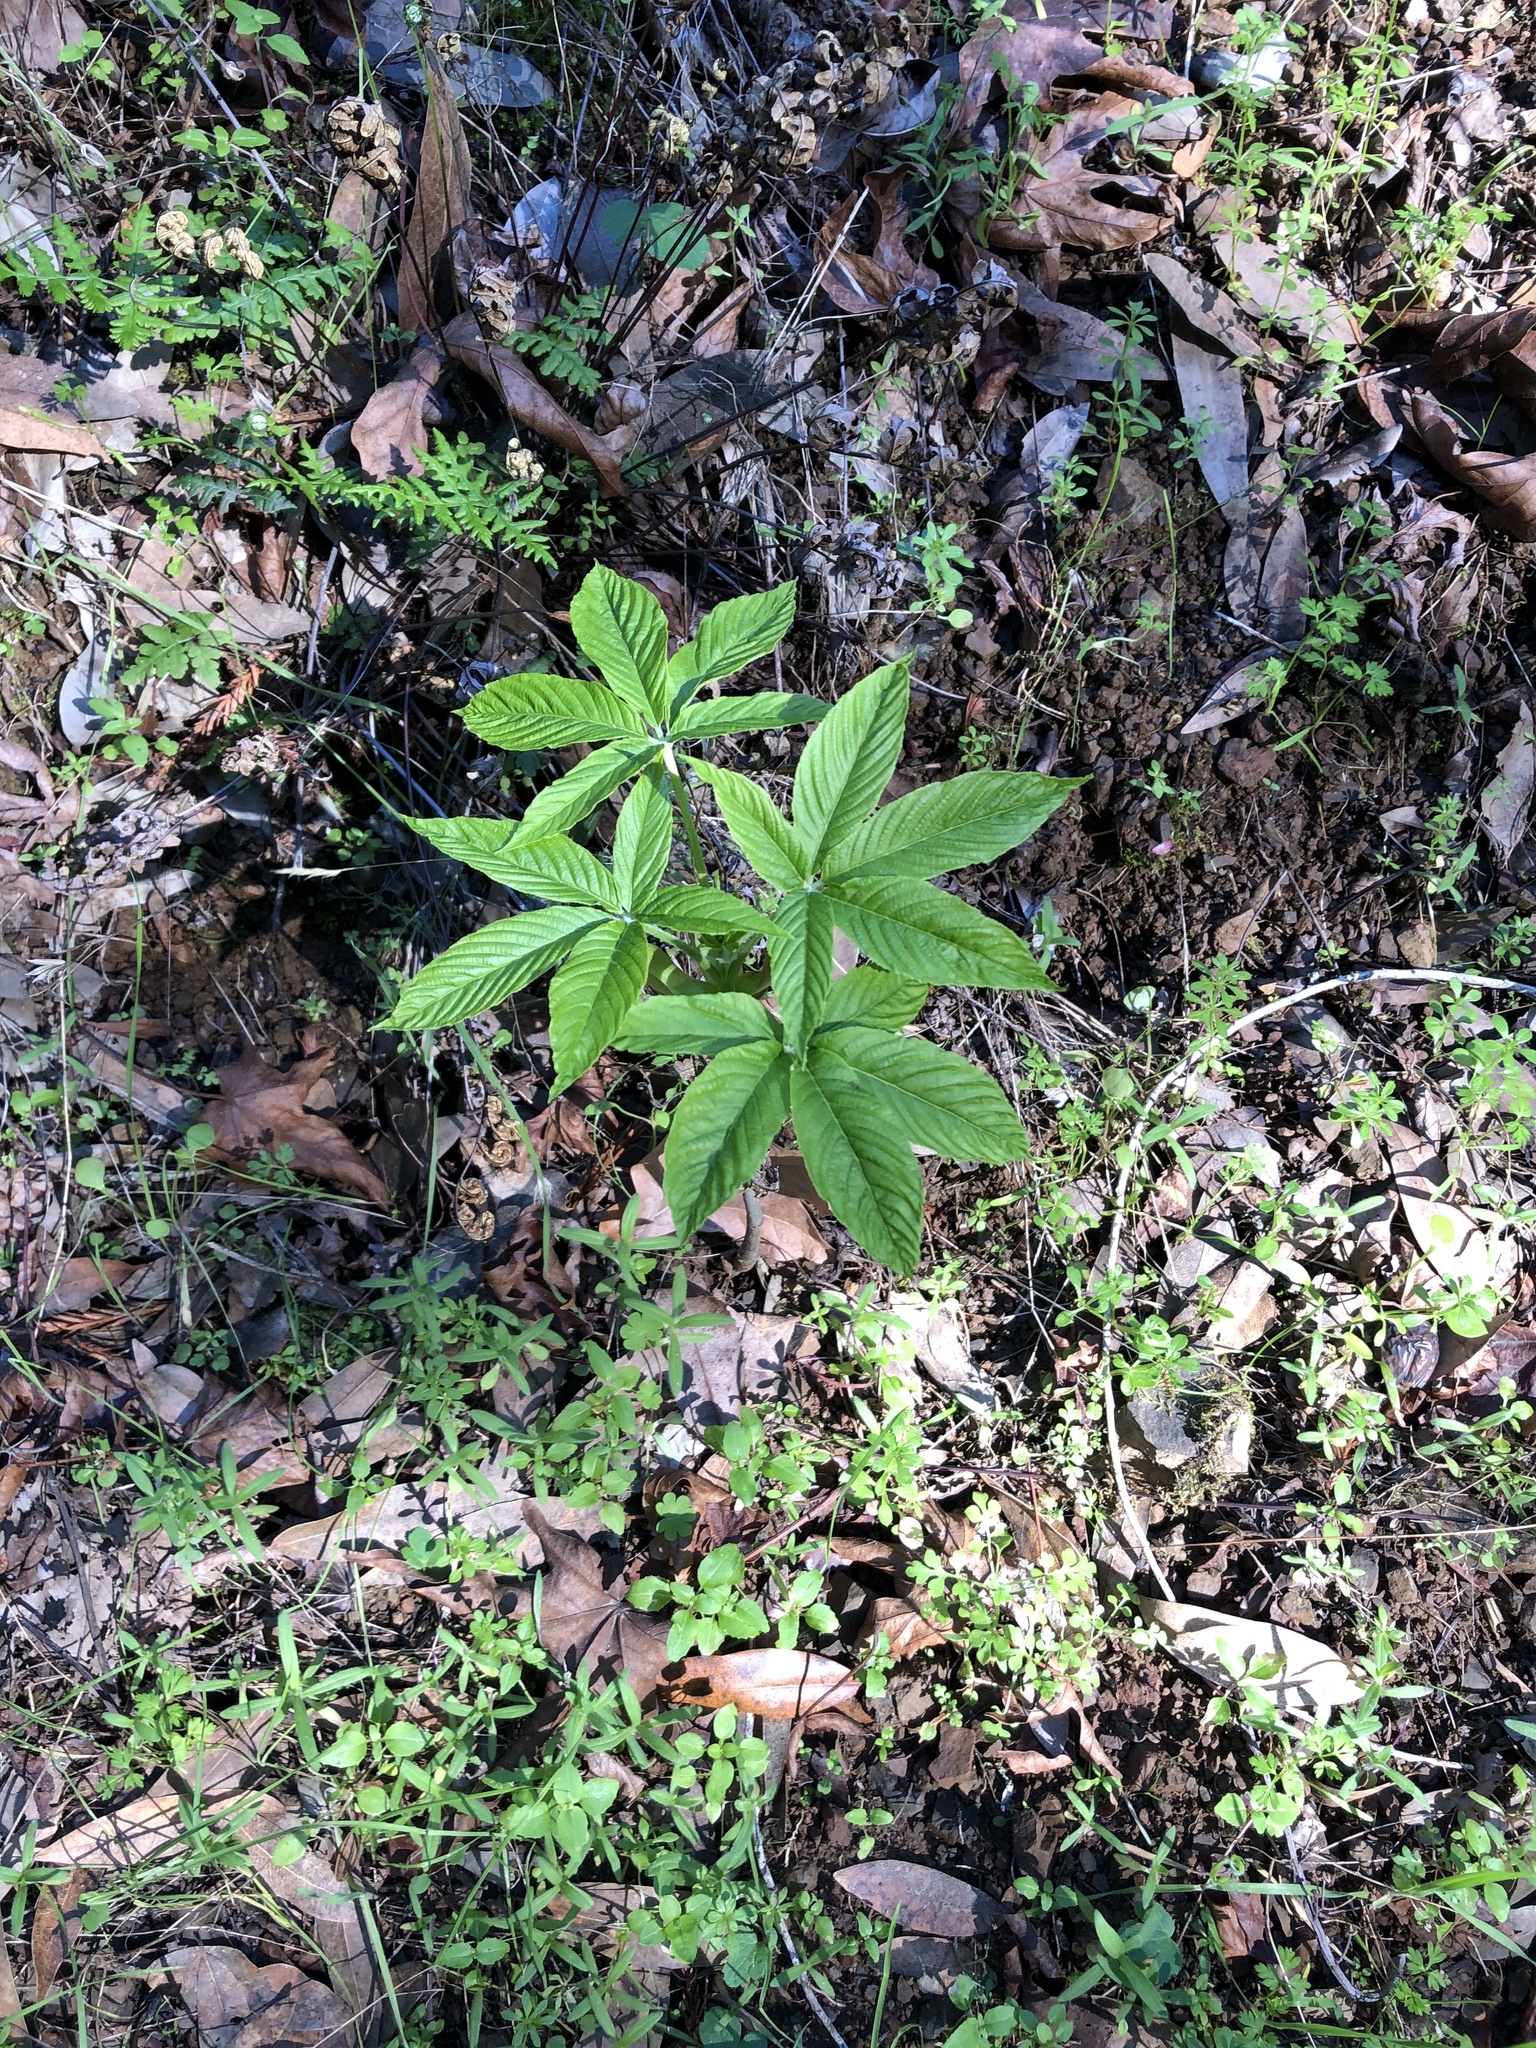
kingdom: Plantae
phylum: Tracheophyta
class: Magnoliopsida
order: Sapindales
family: Sapindaceae
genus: Aesculus
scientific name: Aesculus californica
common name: California buckeye
